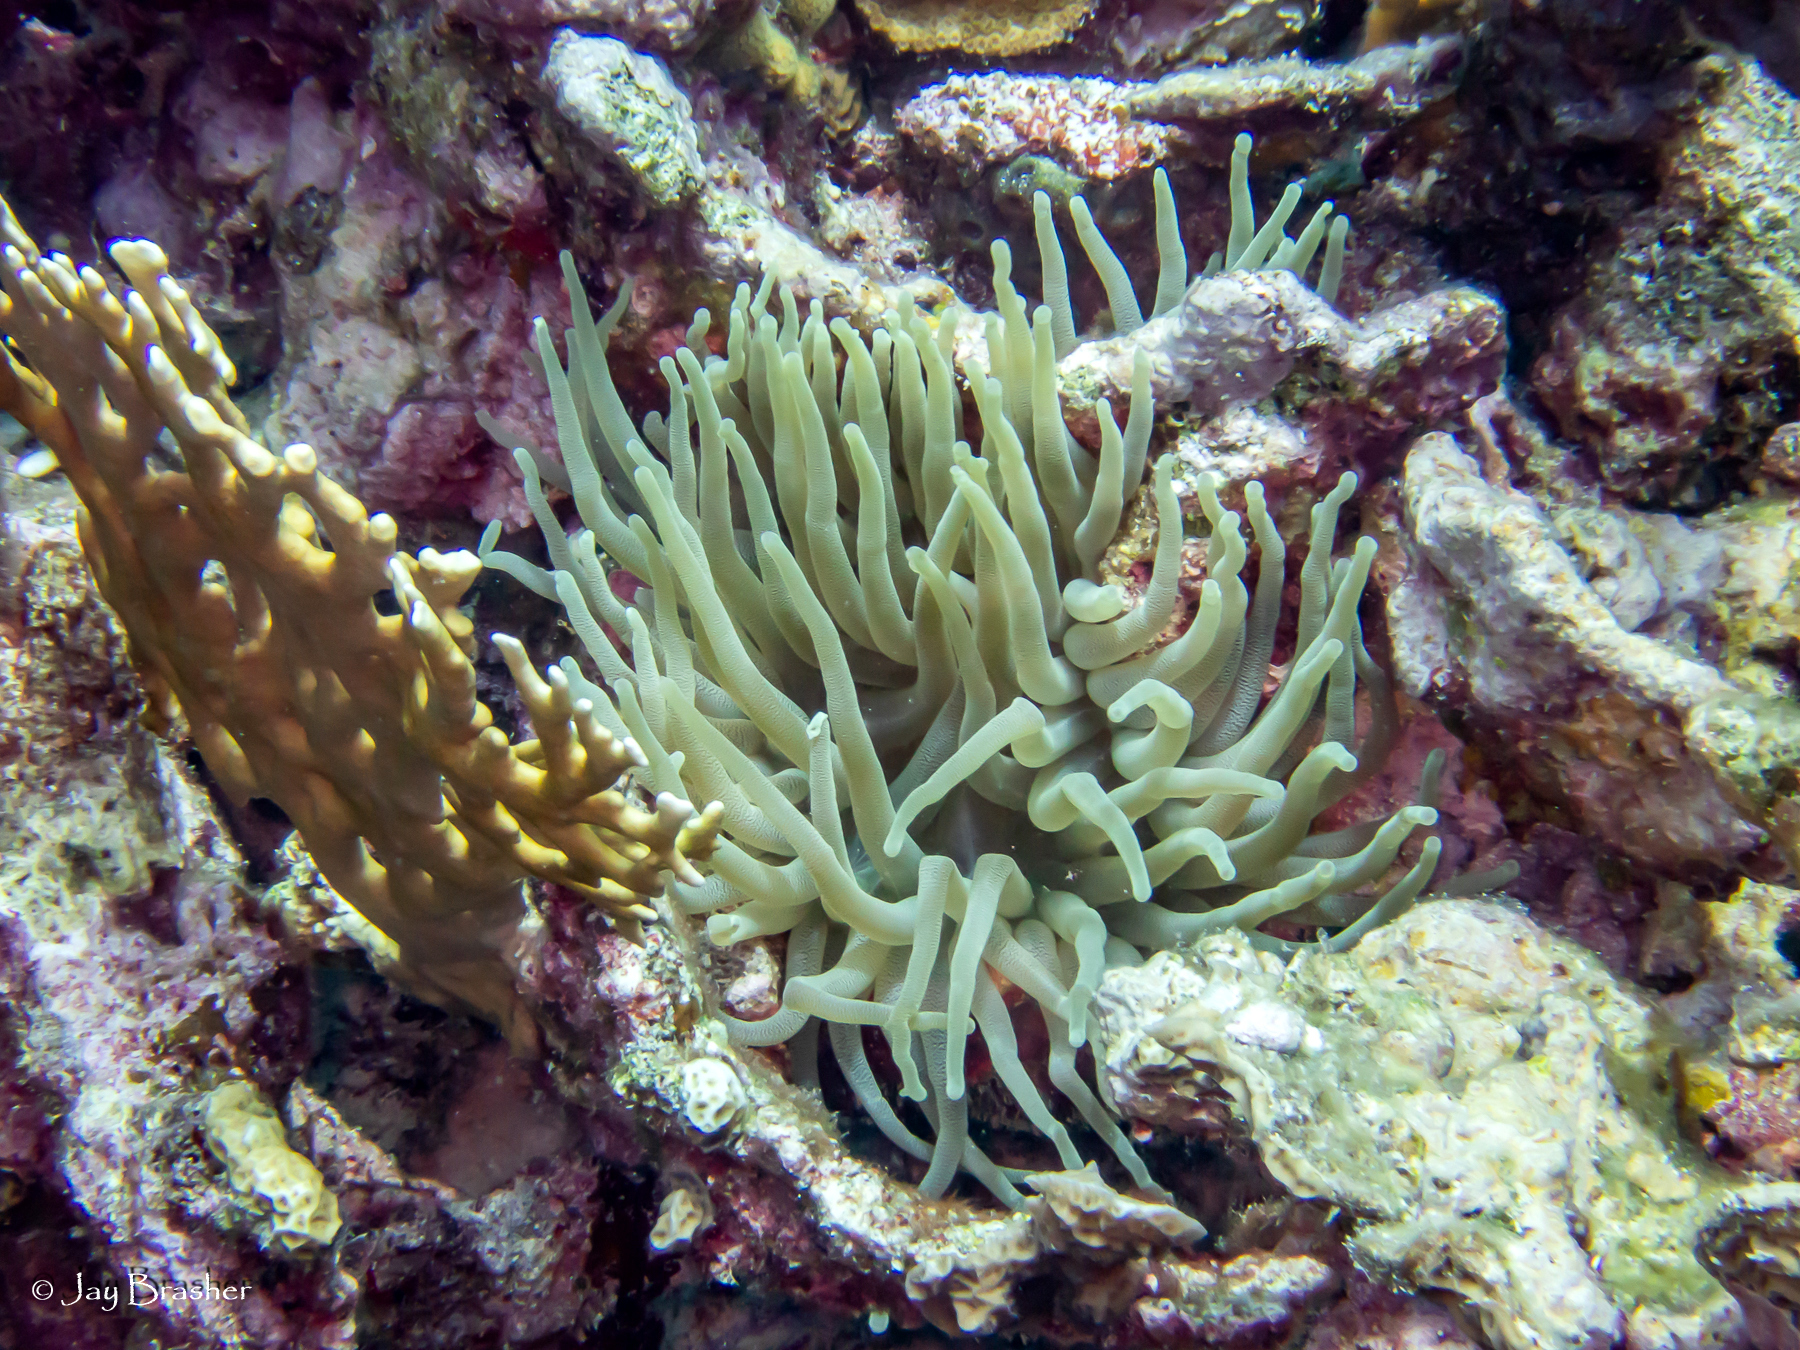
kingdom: Animalia
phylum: Cnidaria
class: Anthozoa
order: Actiniaria
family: Actiniidae
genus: Condylactis
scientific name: Condylactis gigantea
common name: Giant caribbean anemone
